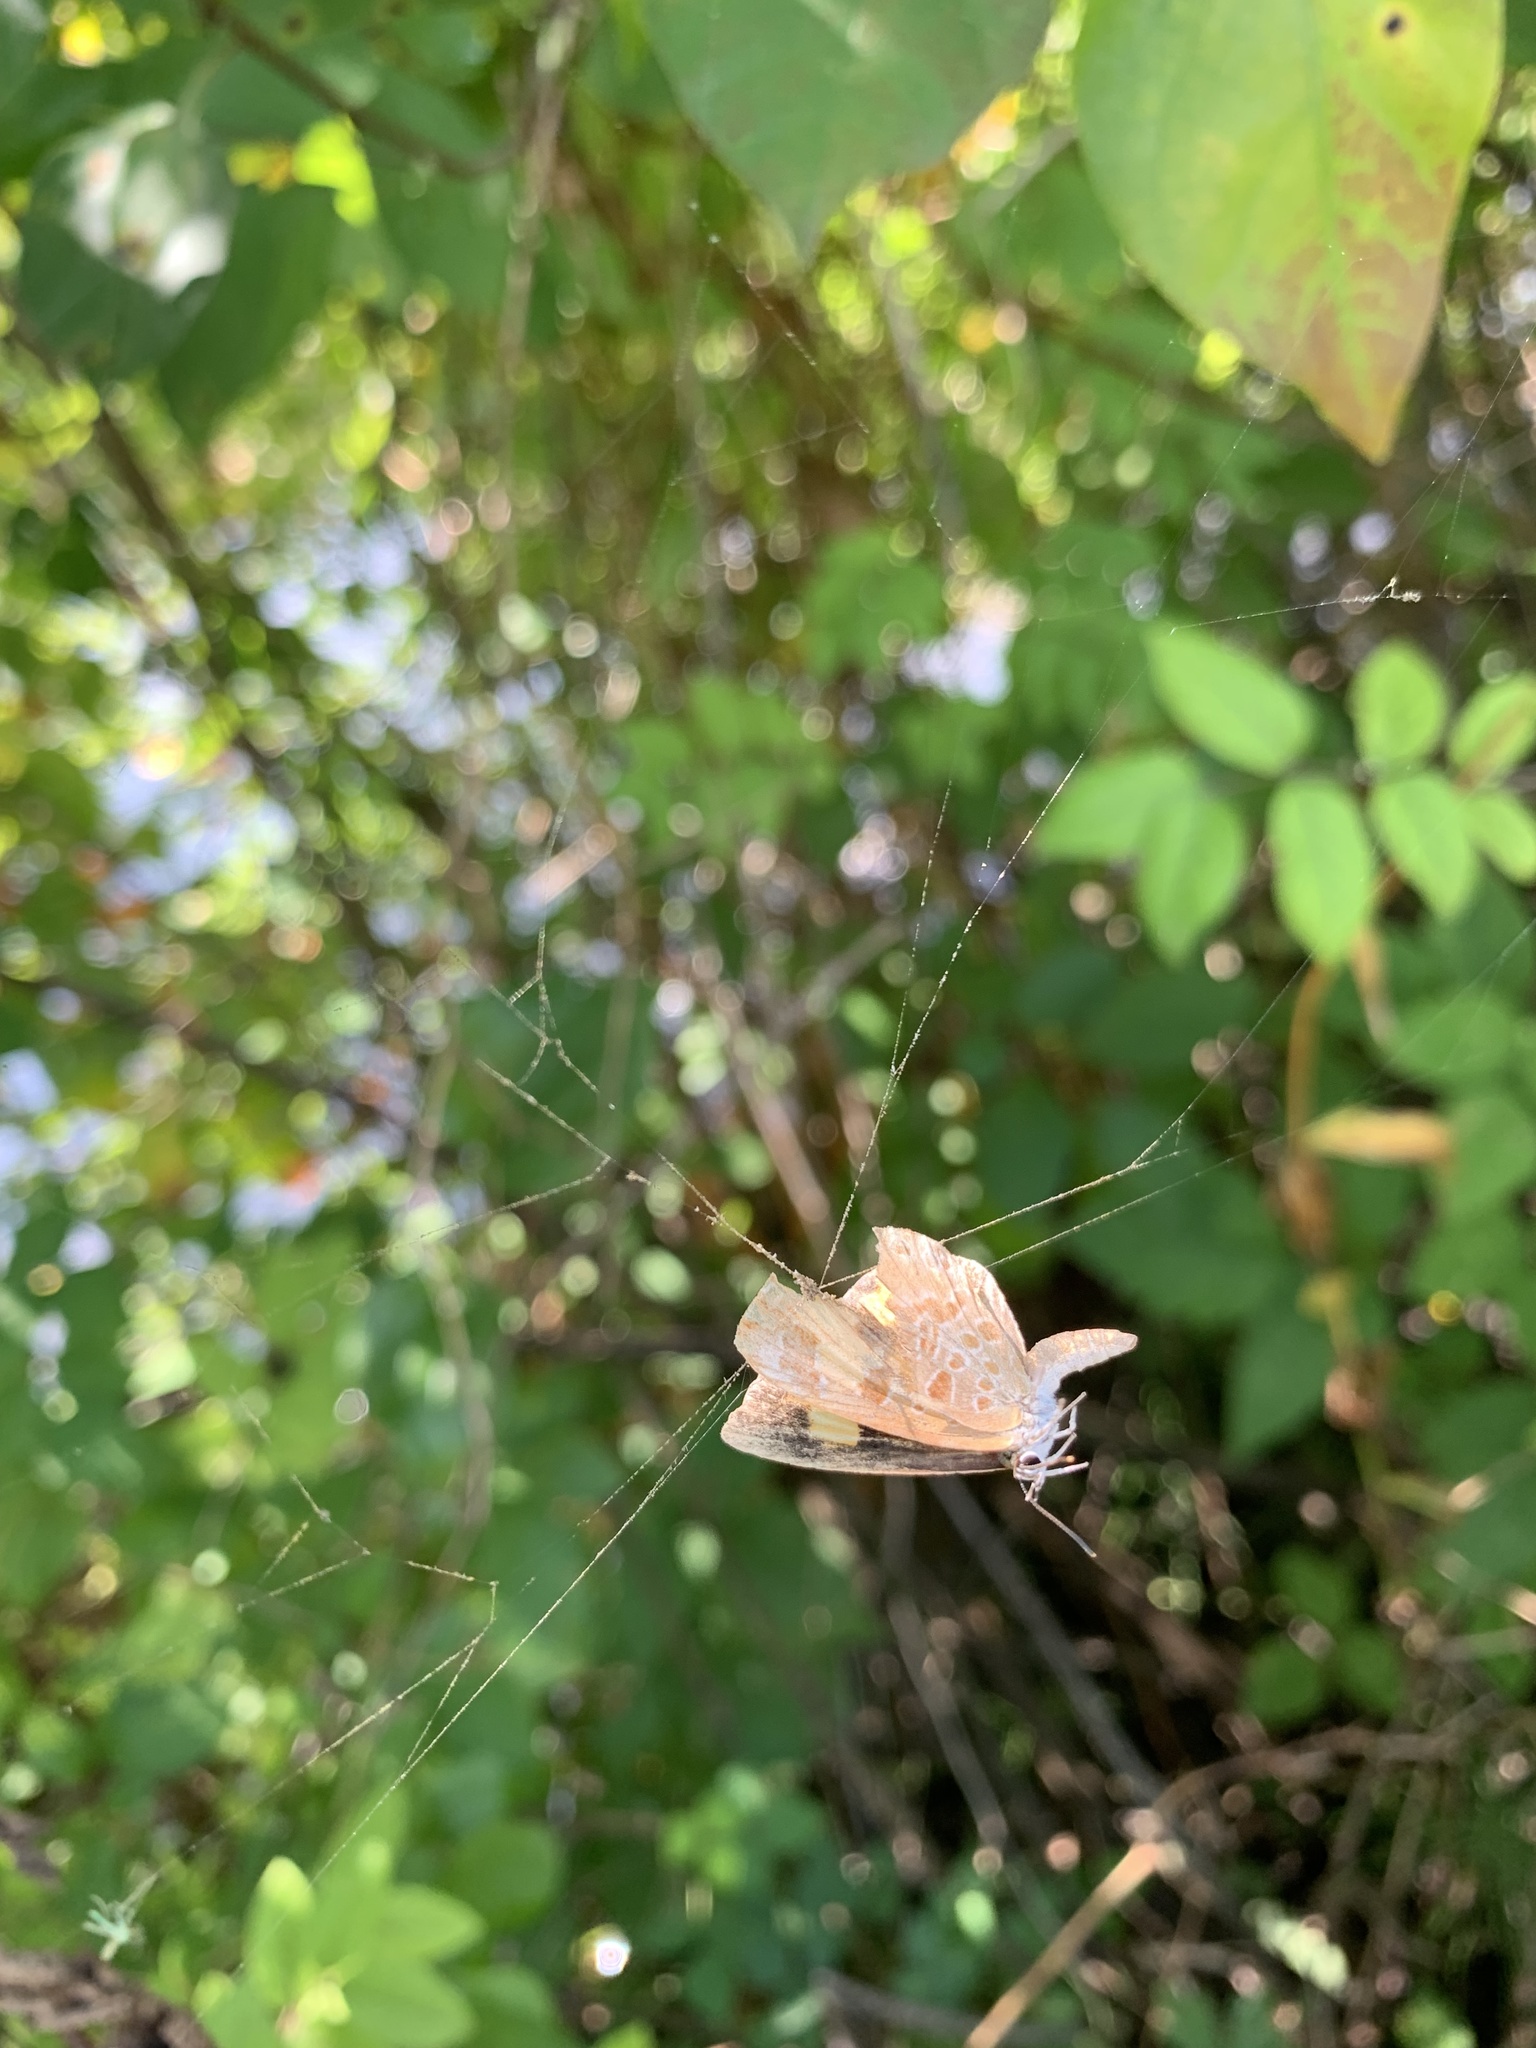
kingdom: Animalia
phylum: Arthropoda
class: Insecta
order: Lepidoptera
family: Lycaenidae
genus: Feniseca
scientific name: Feniseca tarquinius
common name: Harvester
